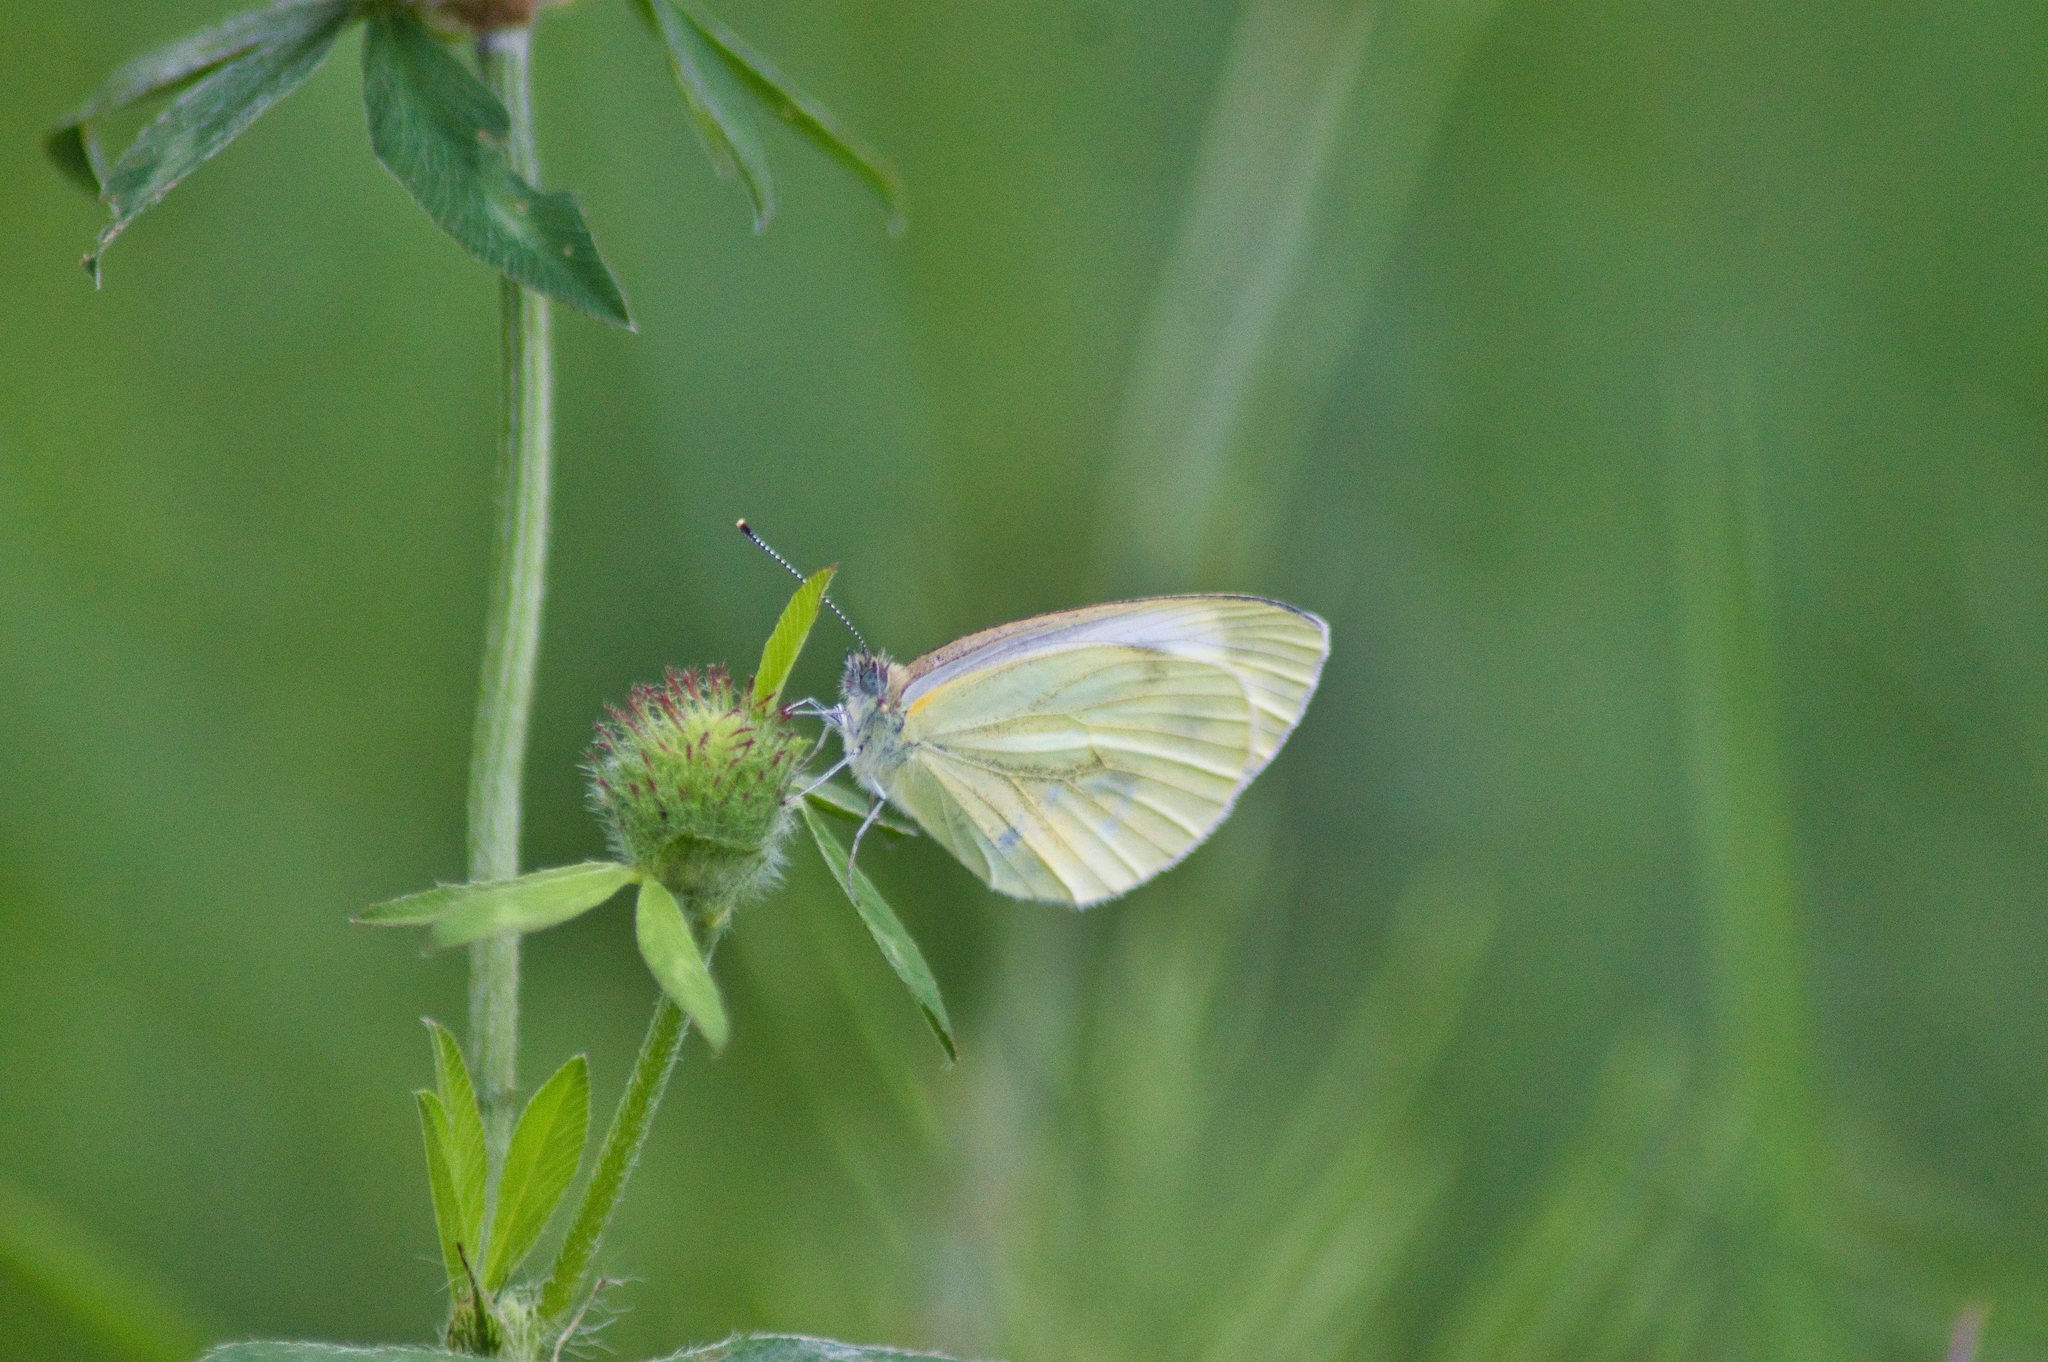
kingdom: Animalia
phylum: Arthropoda
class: Insecta
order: Lepidoptera
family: Pieridae
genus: Pieris
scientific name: Pieris napi
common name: Green-veined white
